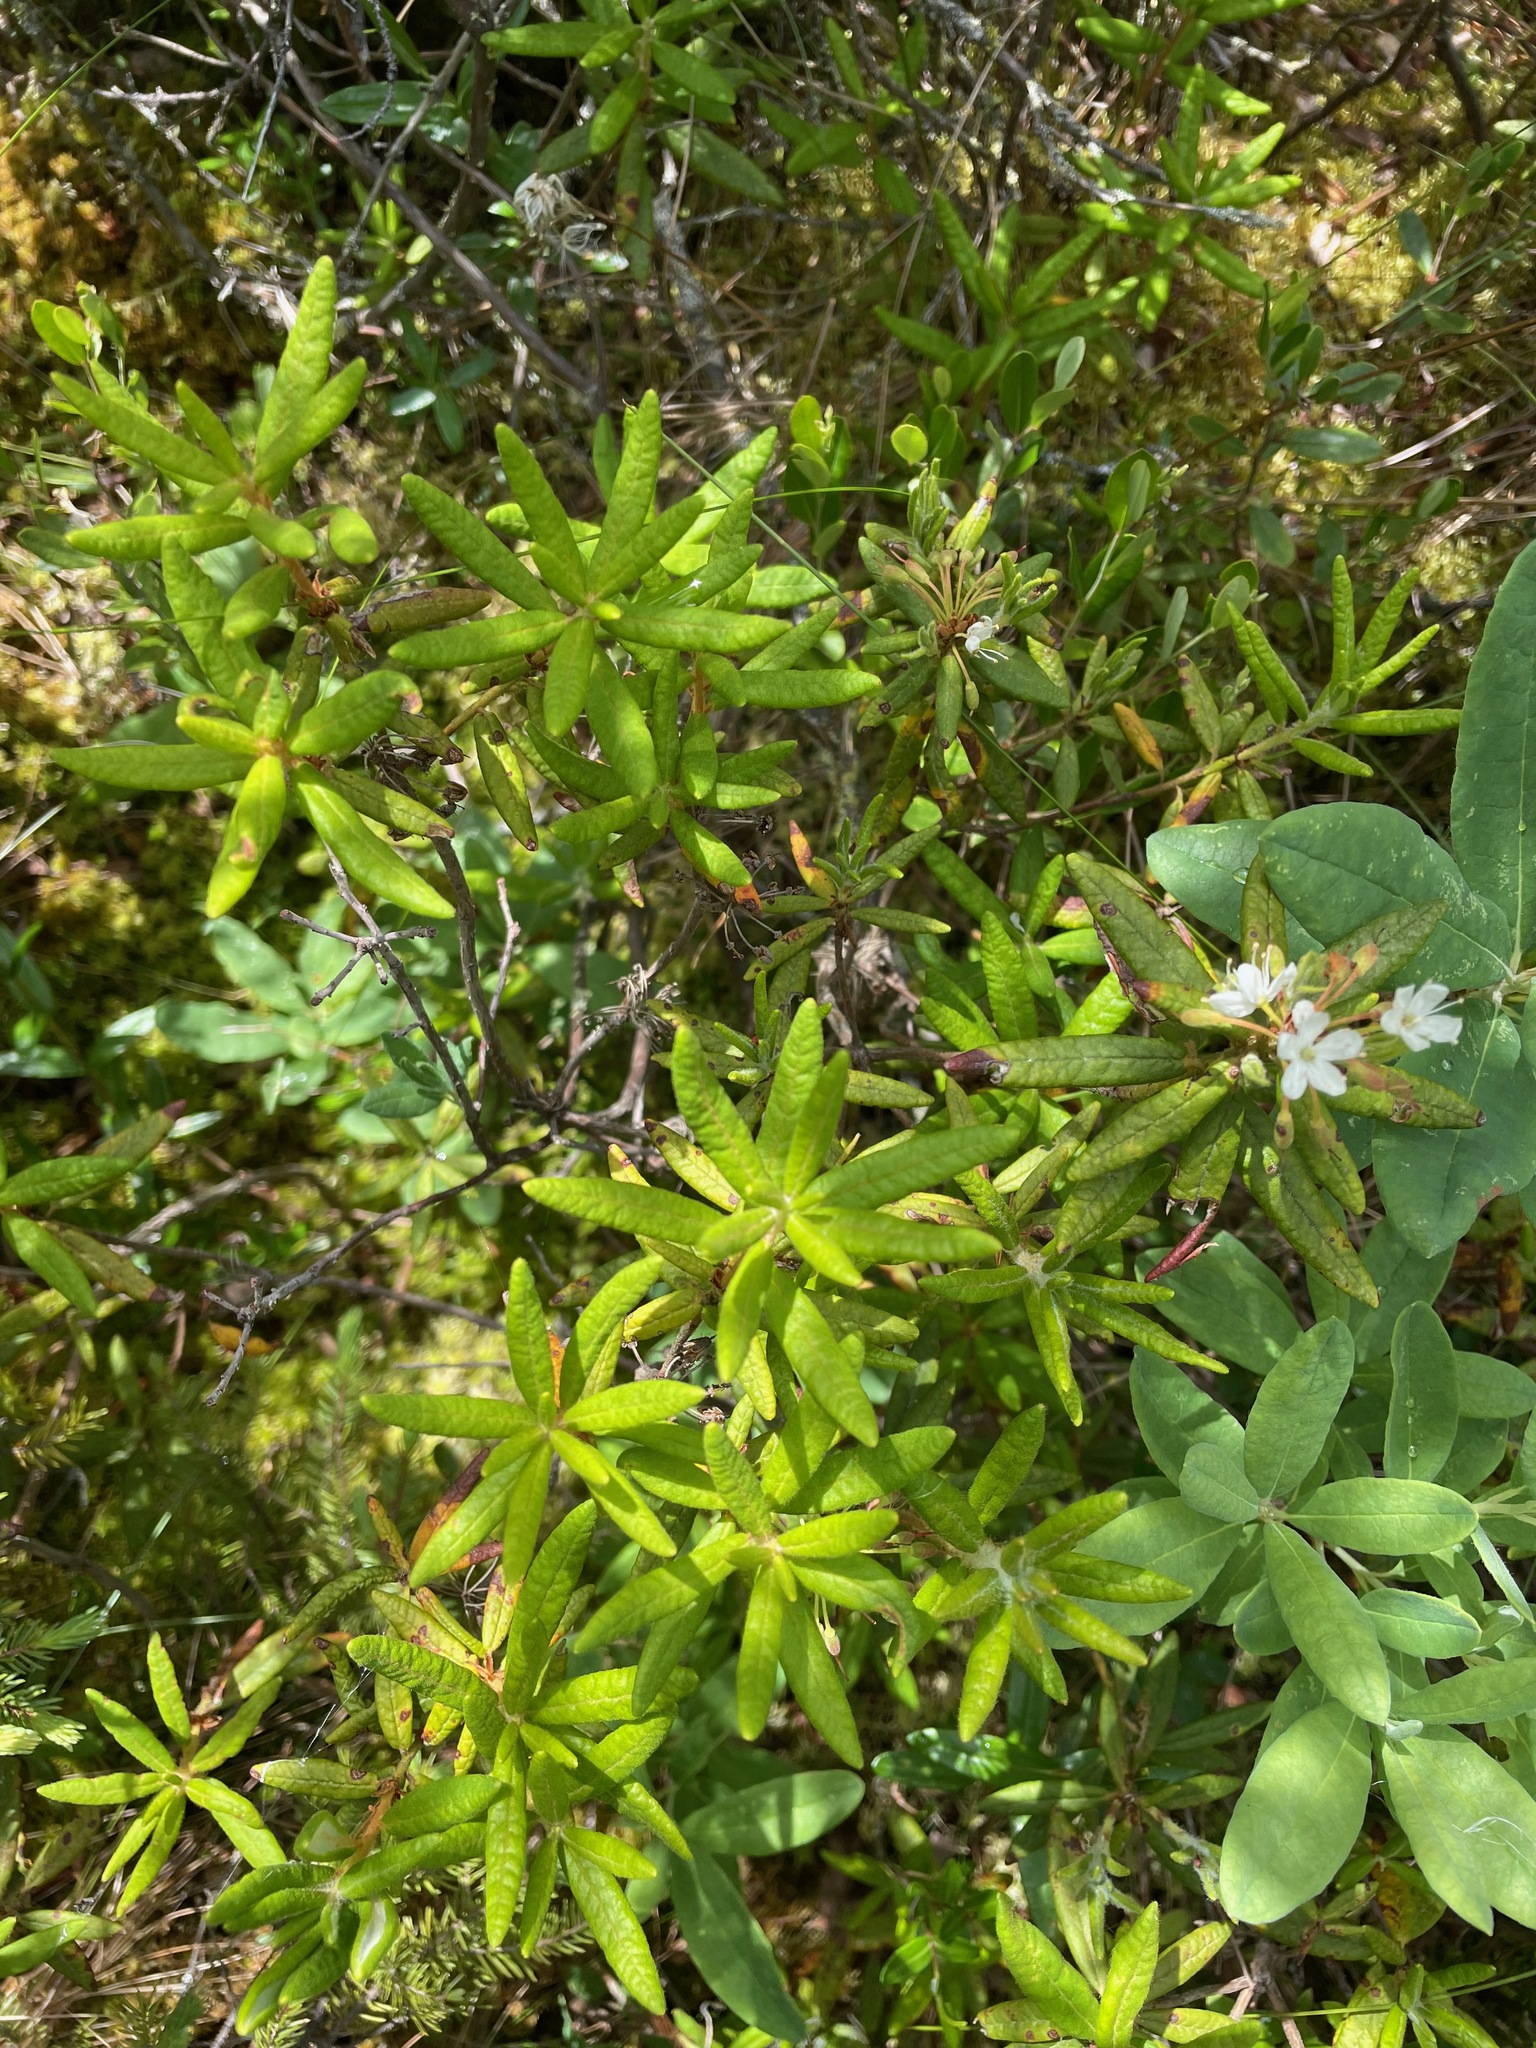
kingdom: Plantae
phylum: Tracheophyta
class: Magnoliopsida
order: Ericales
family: Ericaceae
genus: Rhododendron
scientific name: Rhododendron groenlandicum
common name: Bog labrador tea
